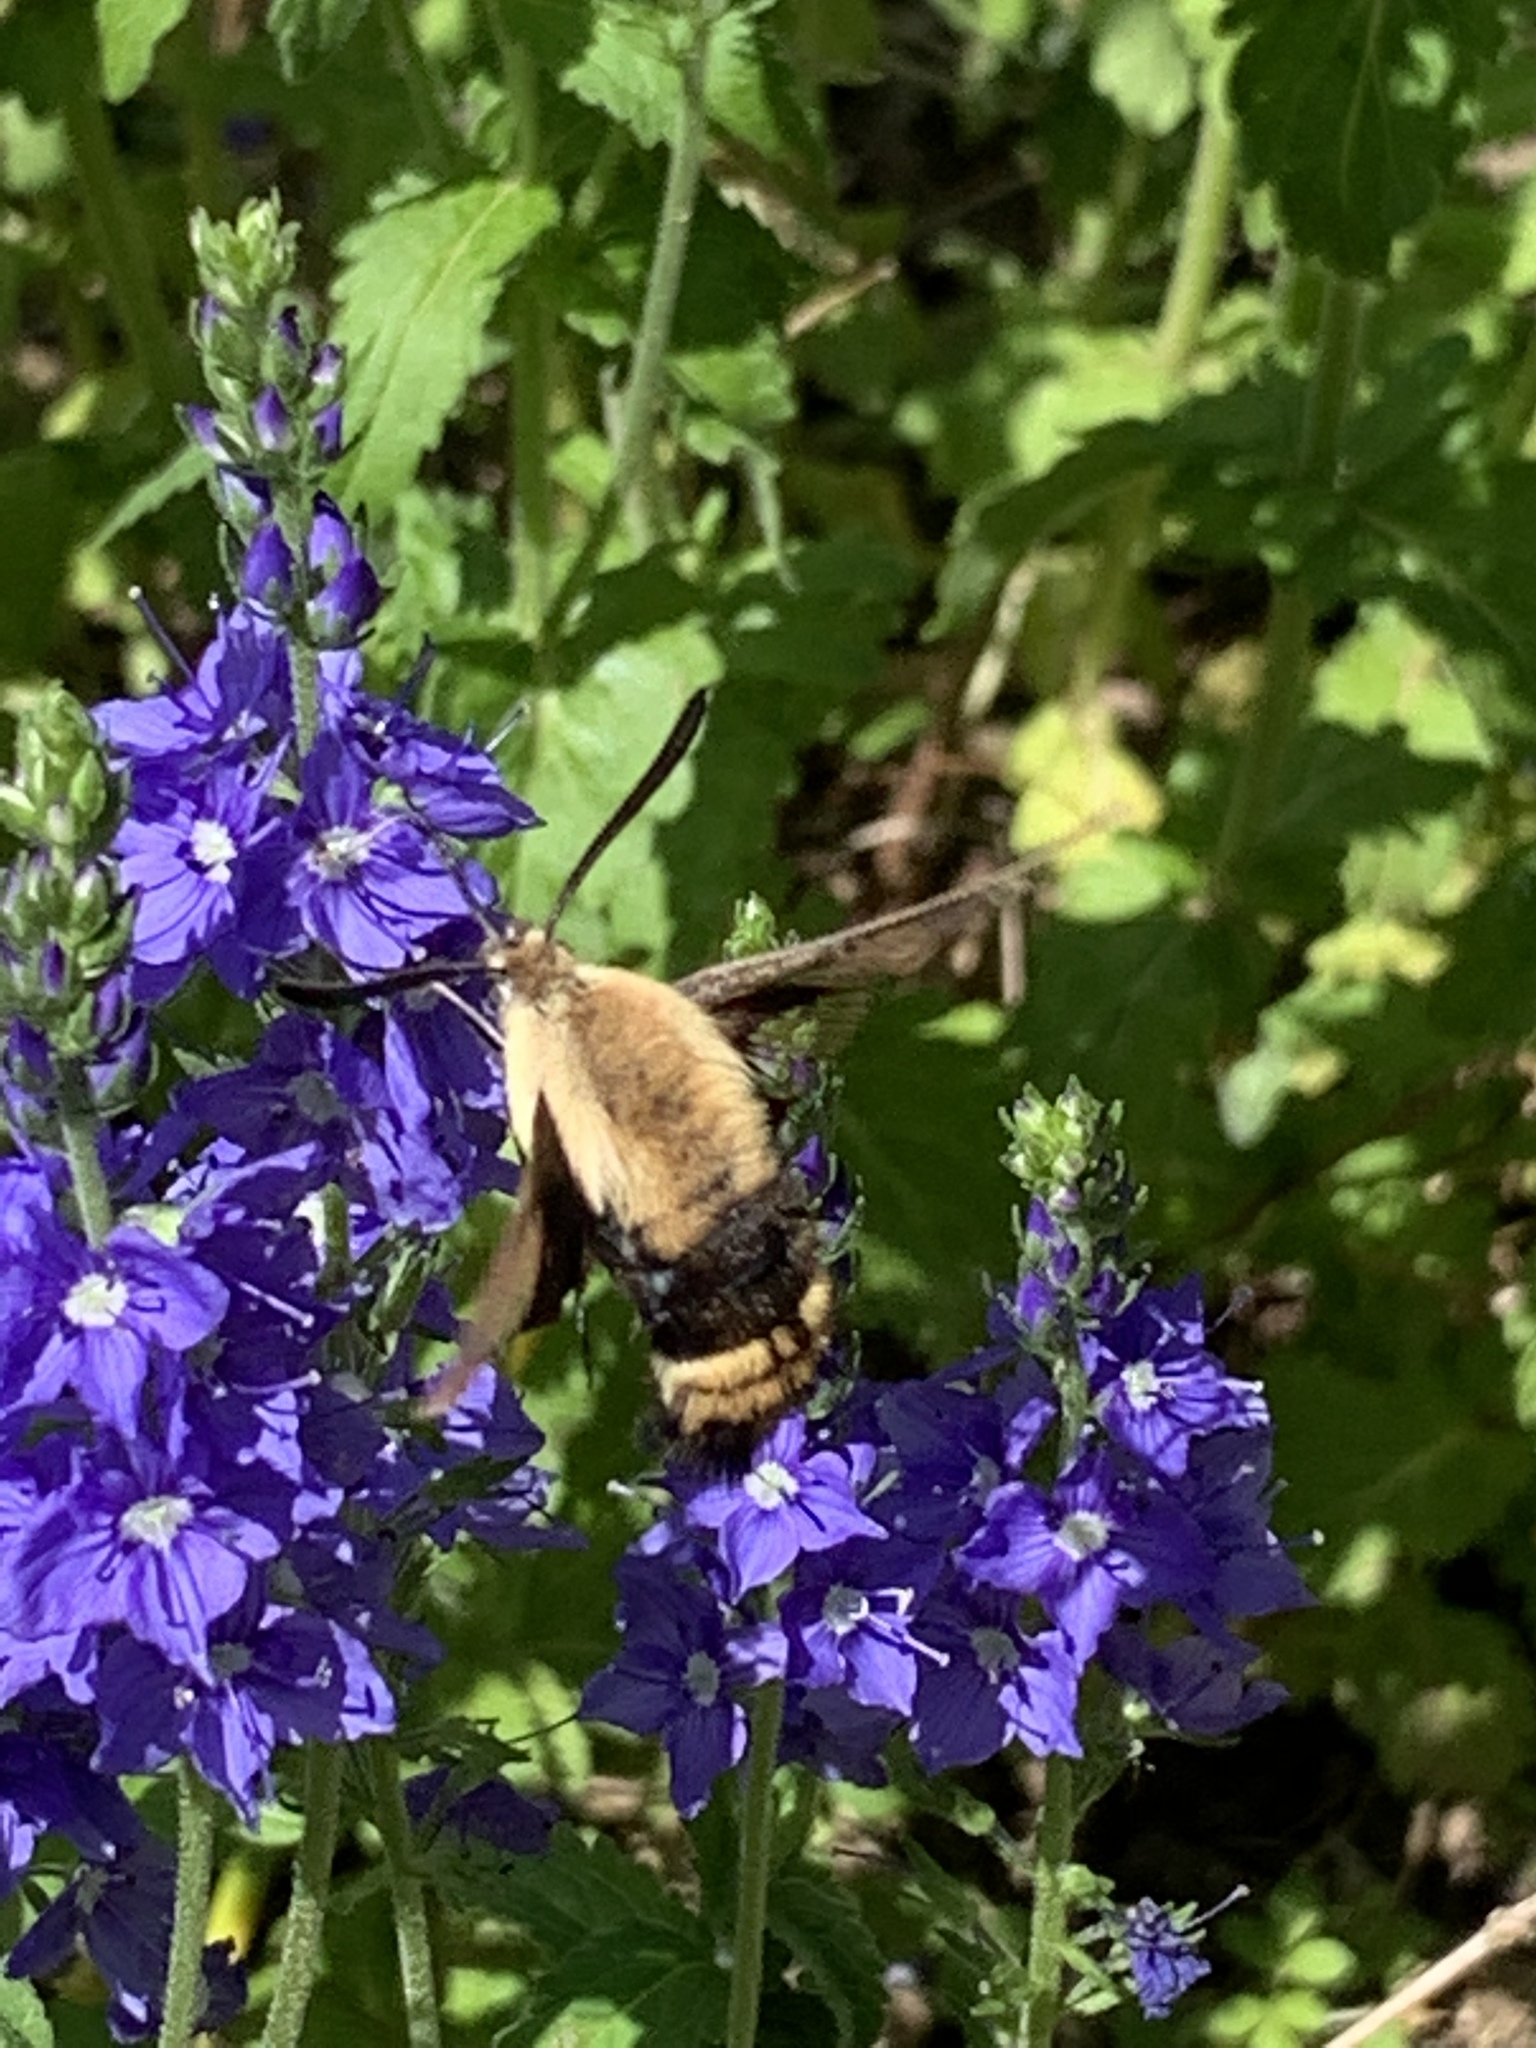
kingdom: Animalia
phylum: Arthropoda
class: Insecta
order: Lepidoptera
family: Sphingidae
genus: Hemaris
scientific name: Hemaris diffinis
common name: Bumblebee moth
